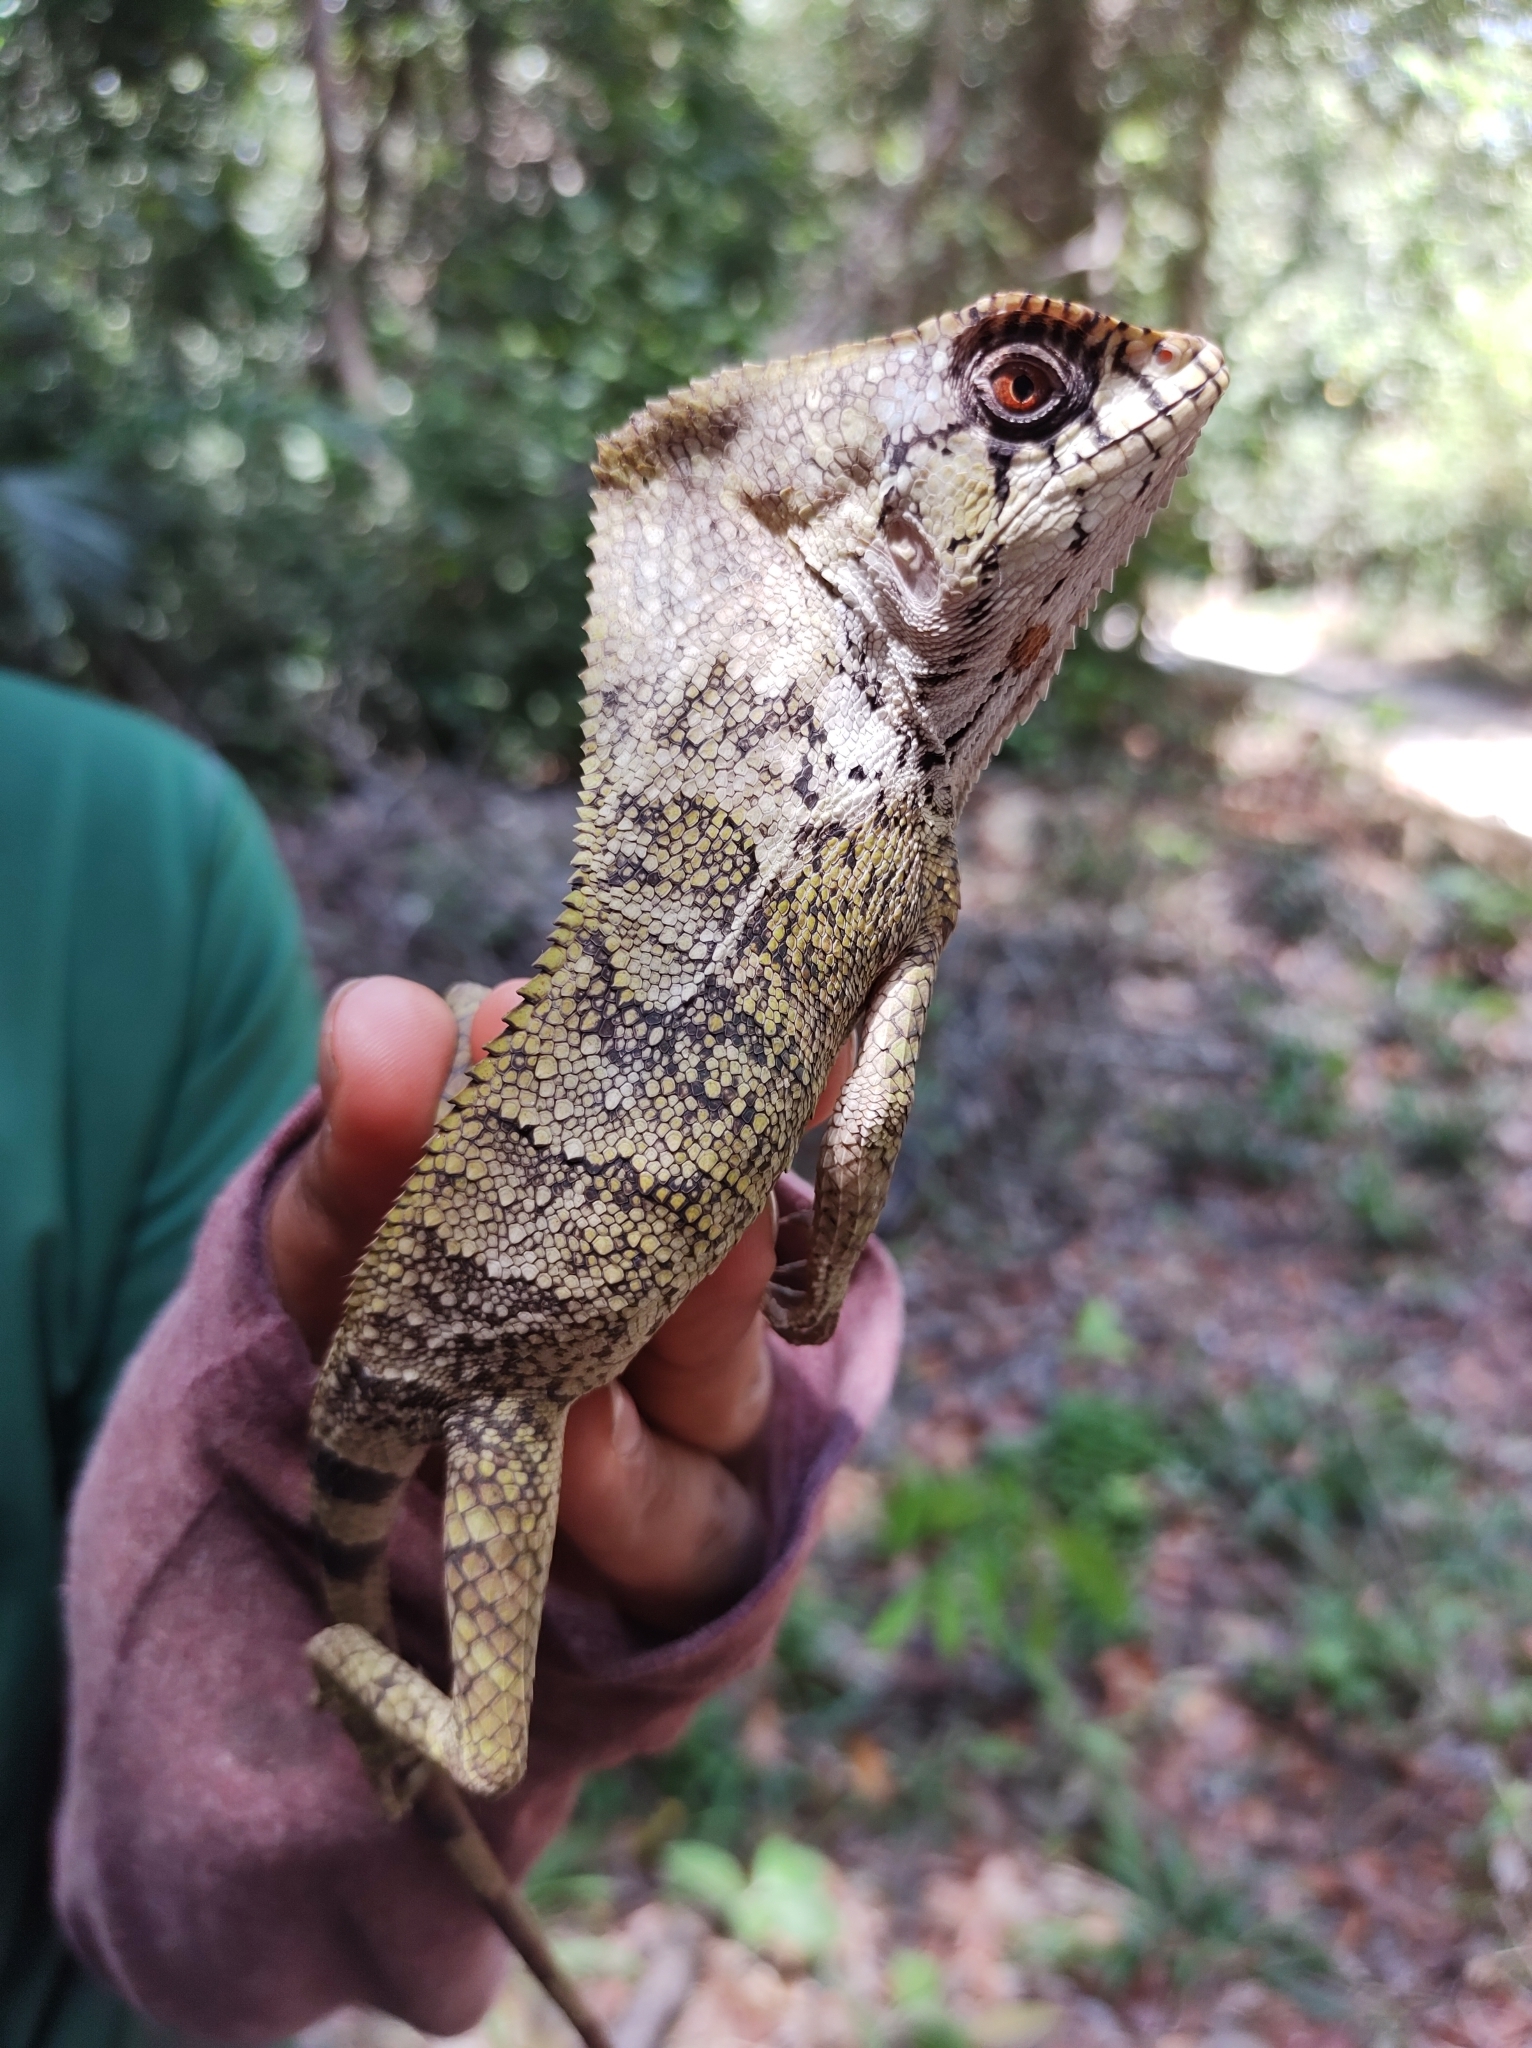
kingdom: Animalia
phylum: Chordata
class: Squamata
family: Corytophanidae
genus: Corytophanes
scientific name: Corytophanes cristatus
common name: Smooth helmeted iguana
